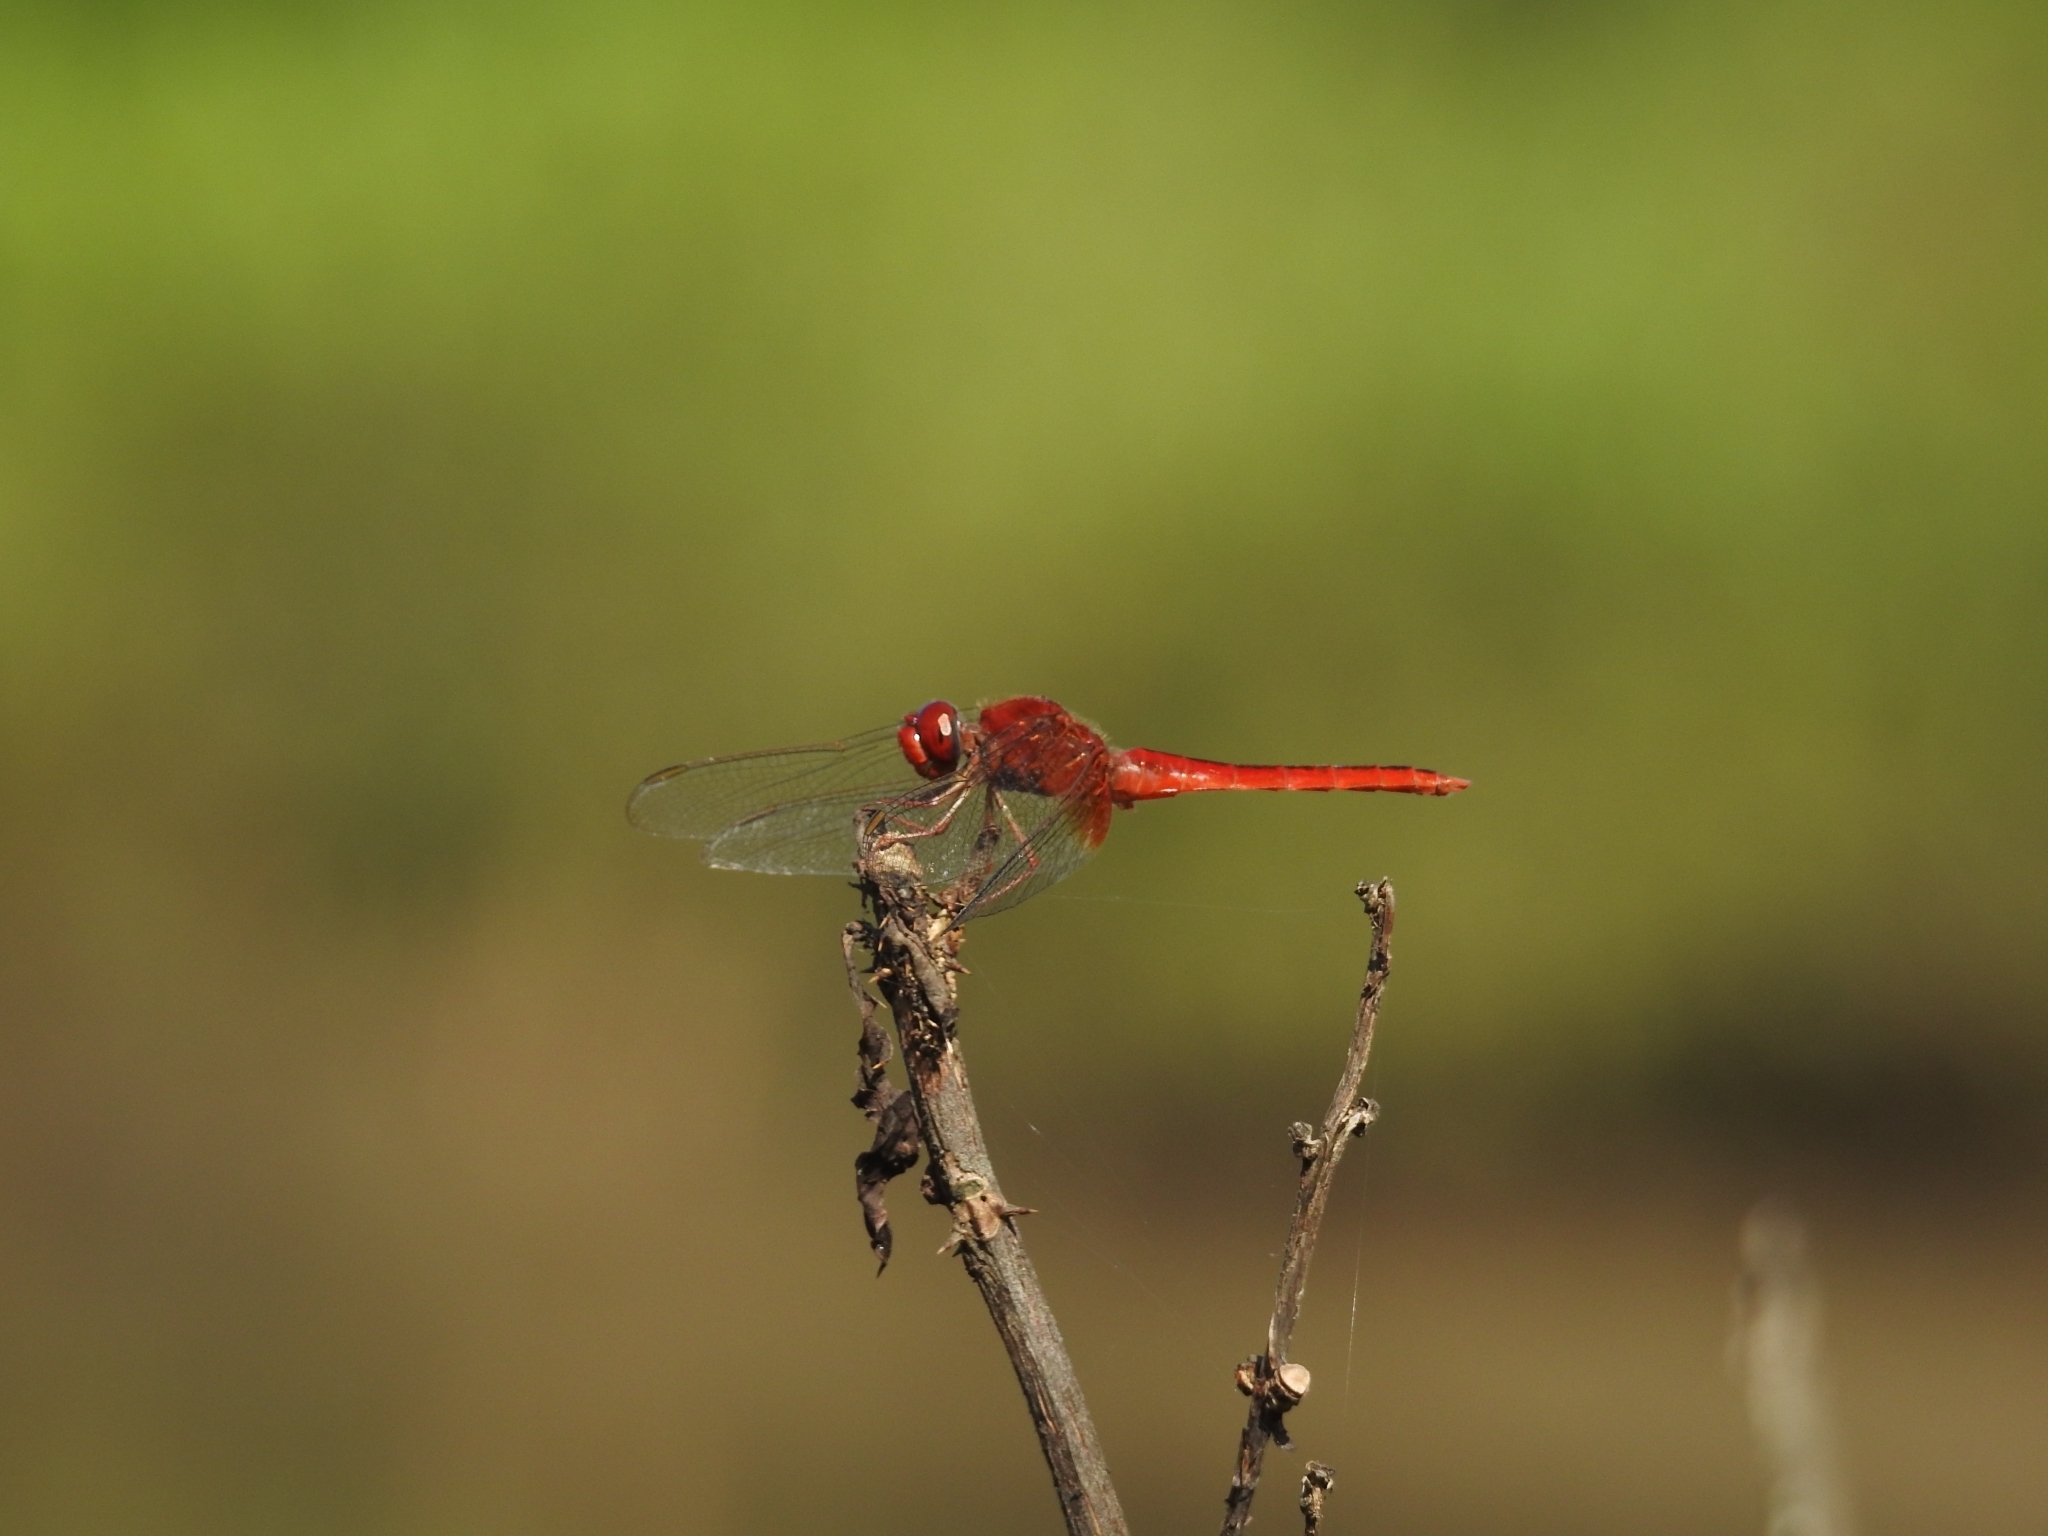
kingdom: Animalia
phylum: Arthropoda
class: Insecta
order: Odonata
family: Libellulidae
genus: Crocothemis
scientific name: Crocothemis servilia
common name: Scarlet skimmer
